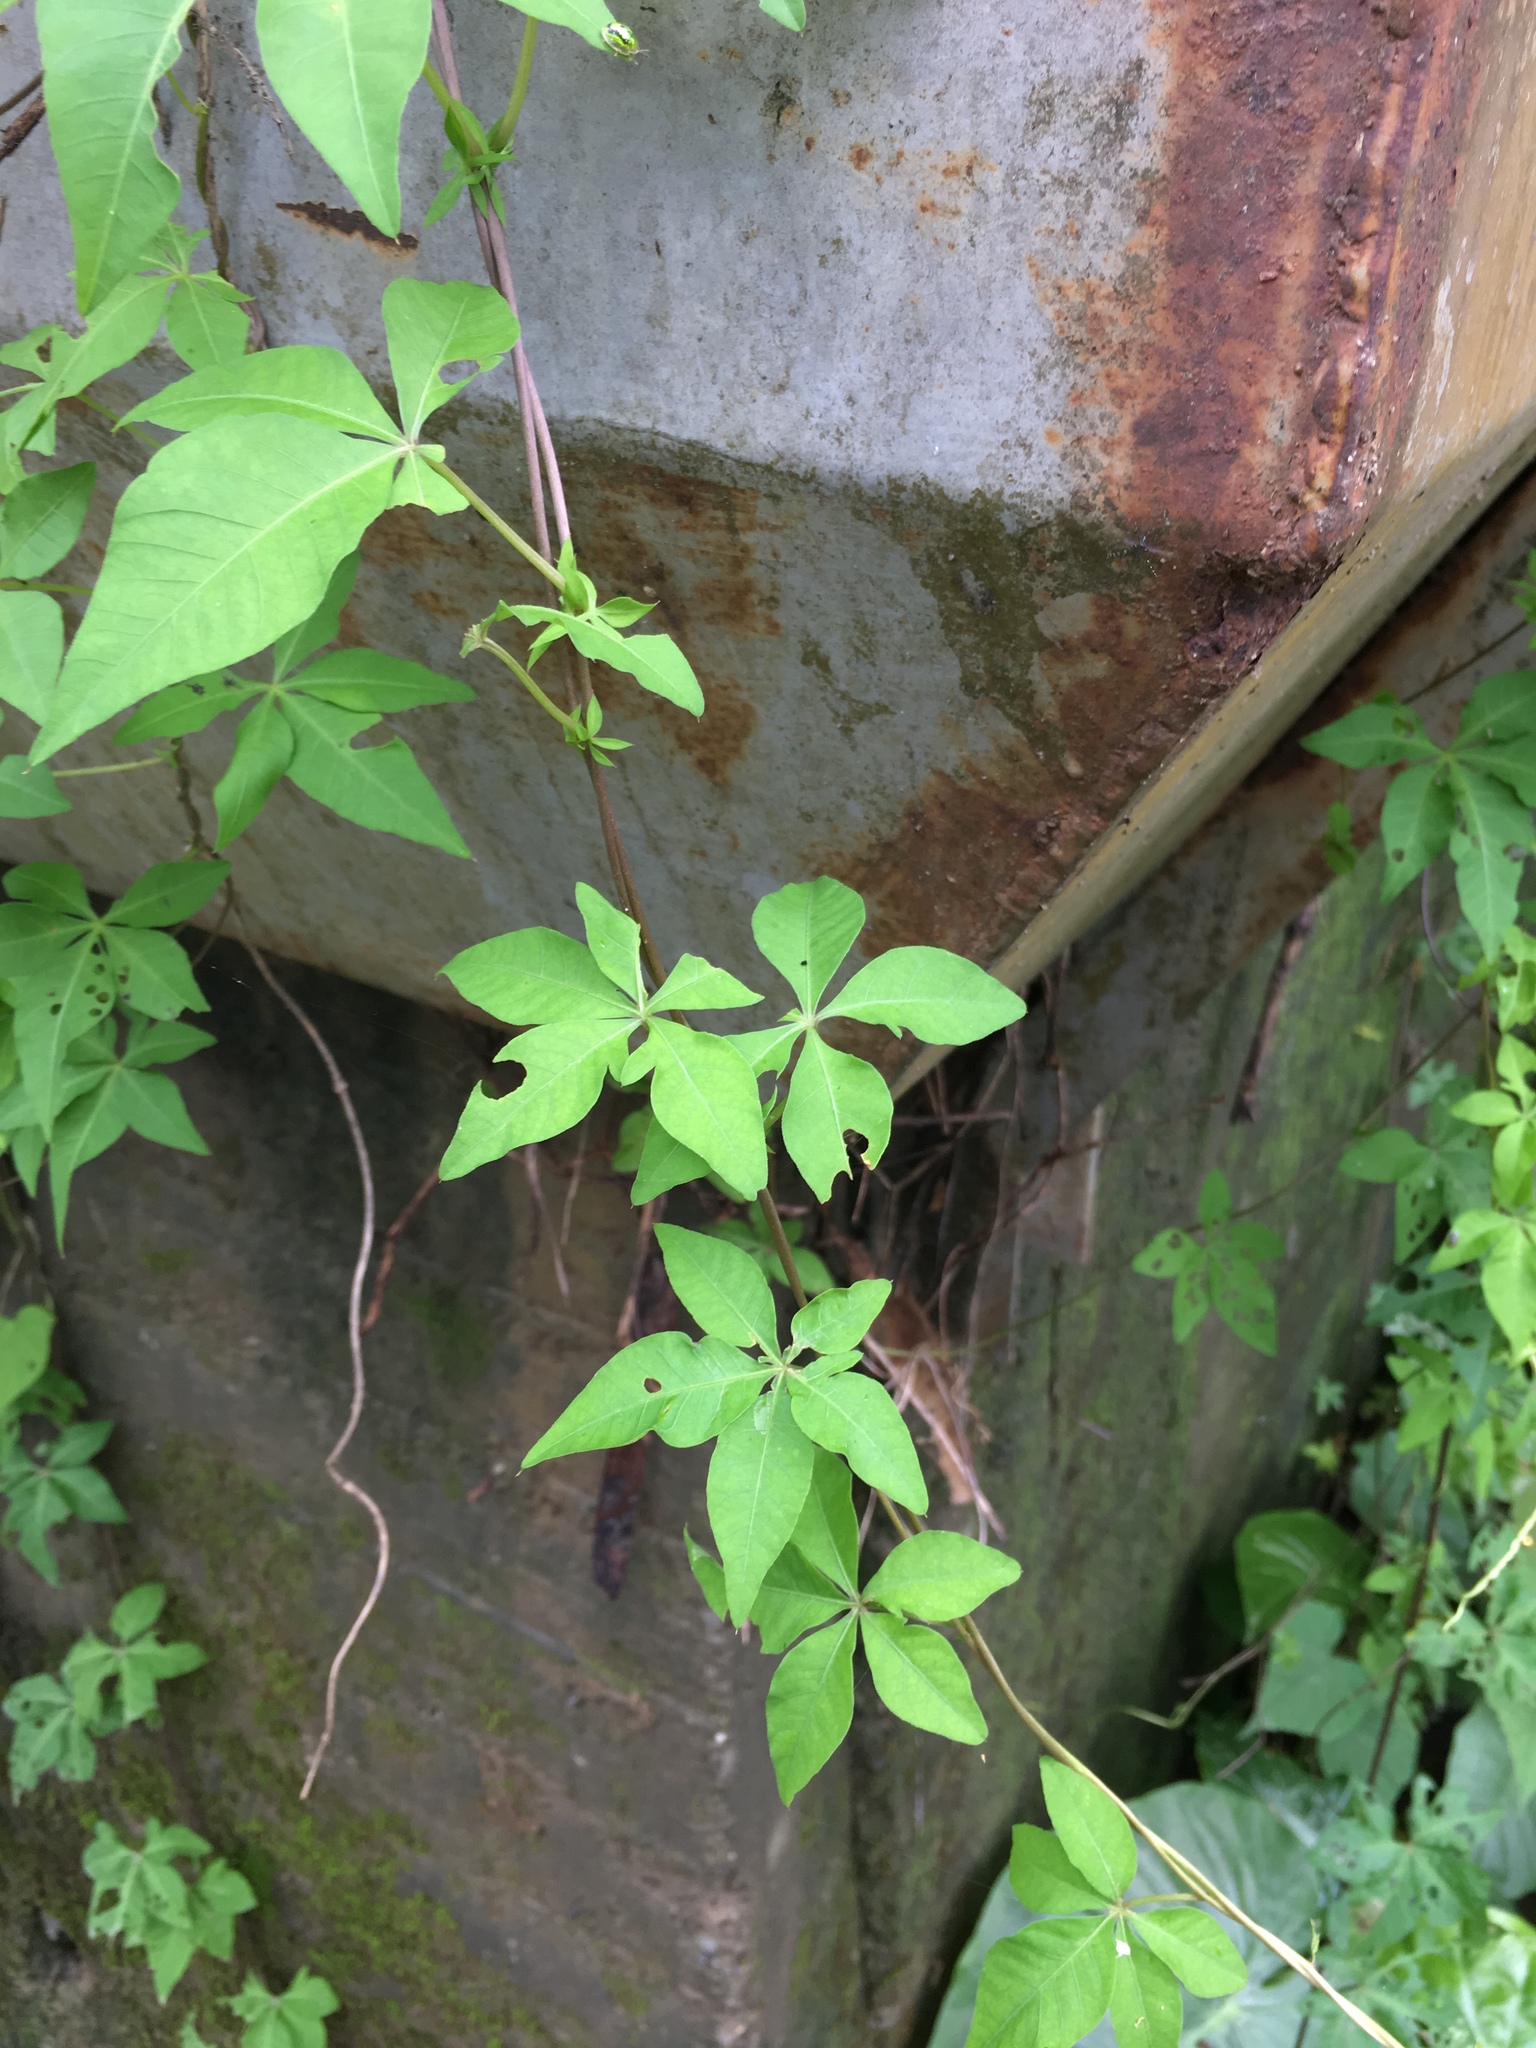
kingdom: Plantae
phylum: Tracheophyta
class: Magnoliopsida
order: Solanales
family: Convolvulaceae
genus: Ipomoea
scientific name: Ipomoea cairica
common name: Mile a minute vine
